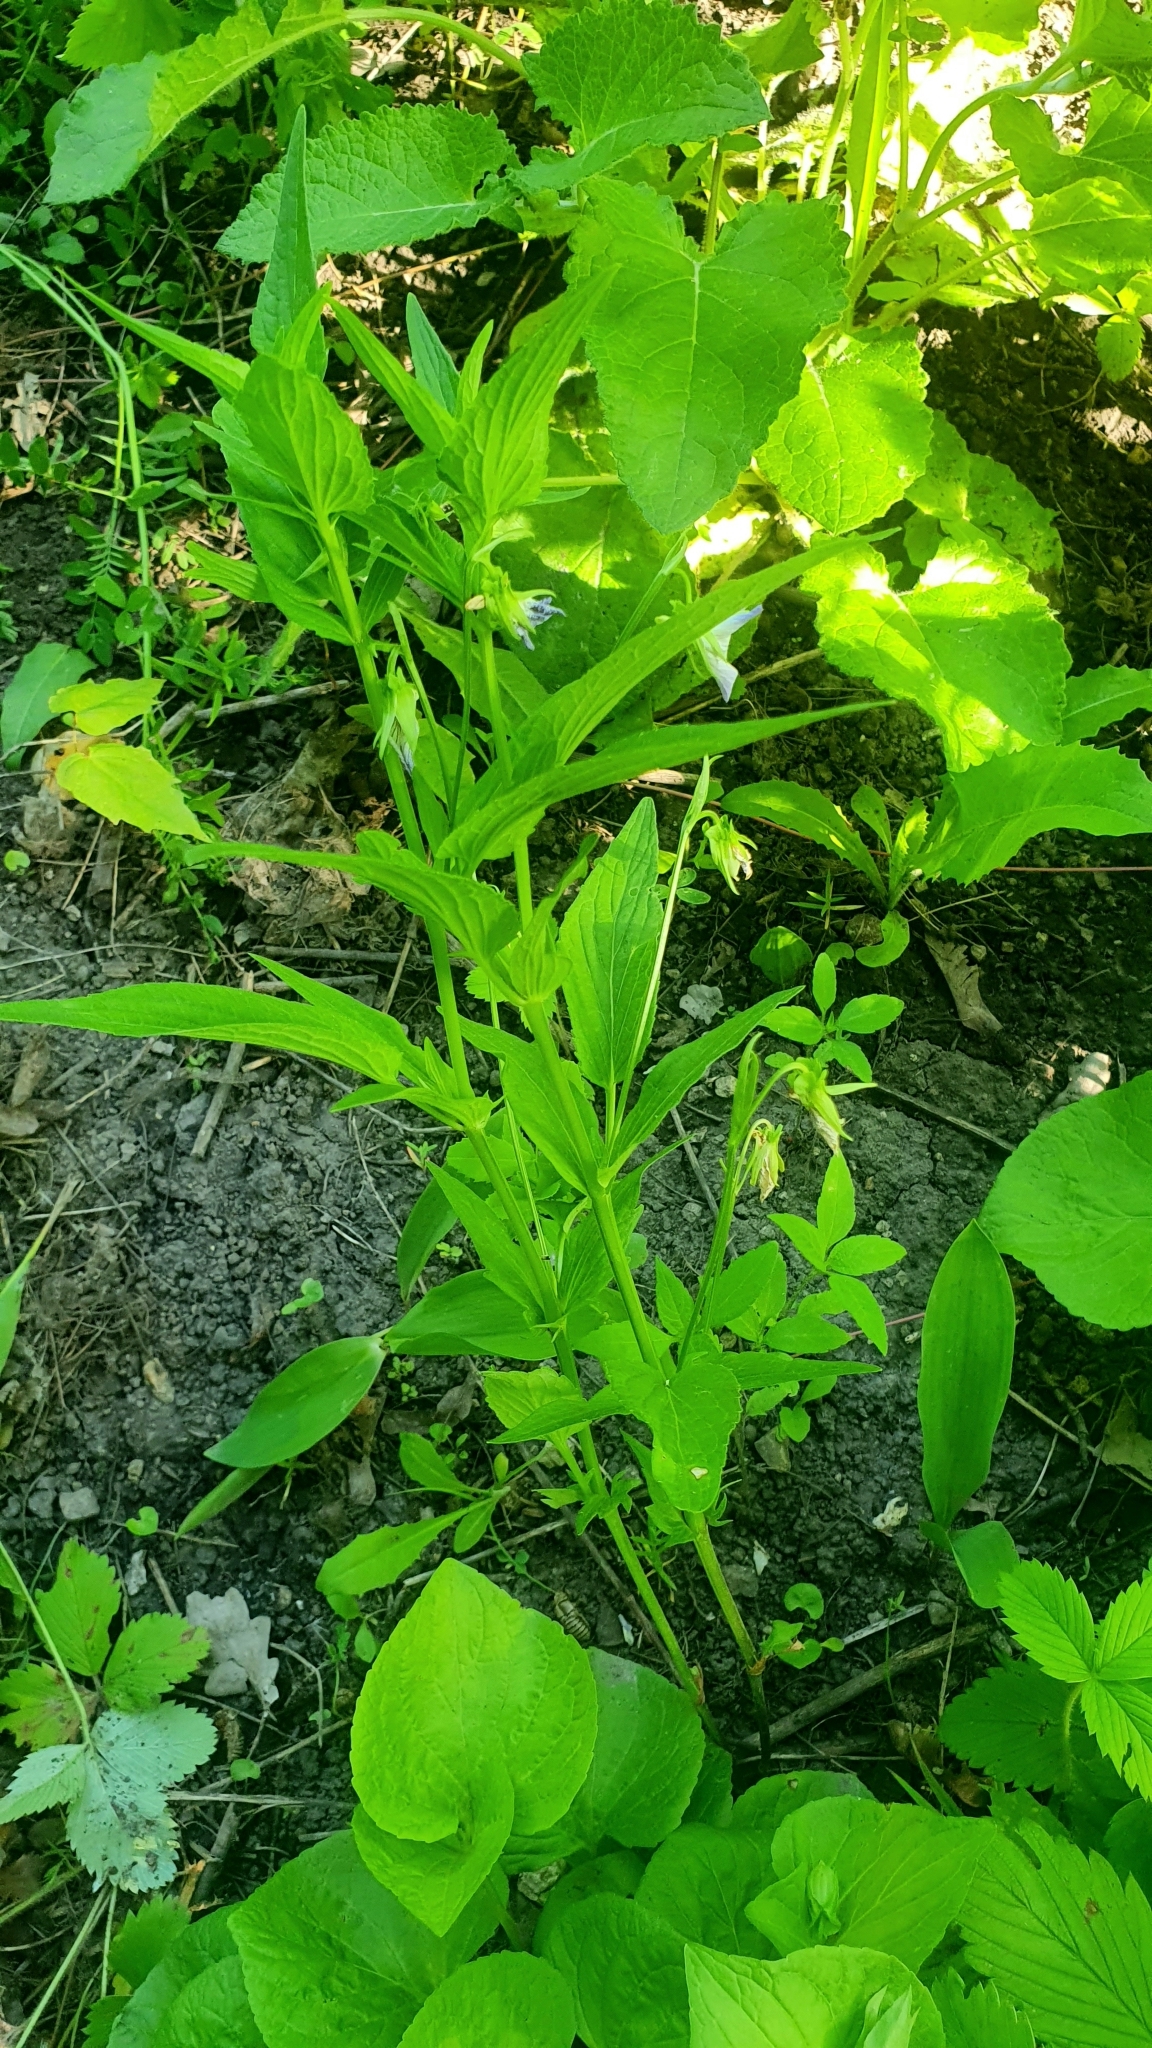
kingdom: Plantae
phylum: Tracheophyta
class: Magnoliopsida
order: Malpighiales
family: Violaceae
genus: Viola
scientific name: Viola elatior
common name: Tall violet
